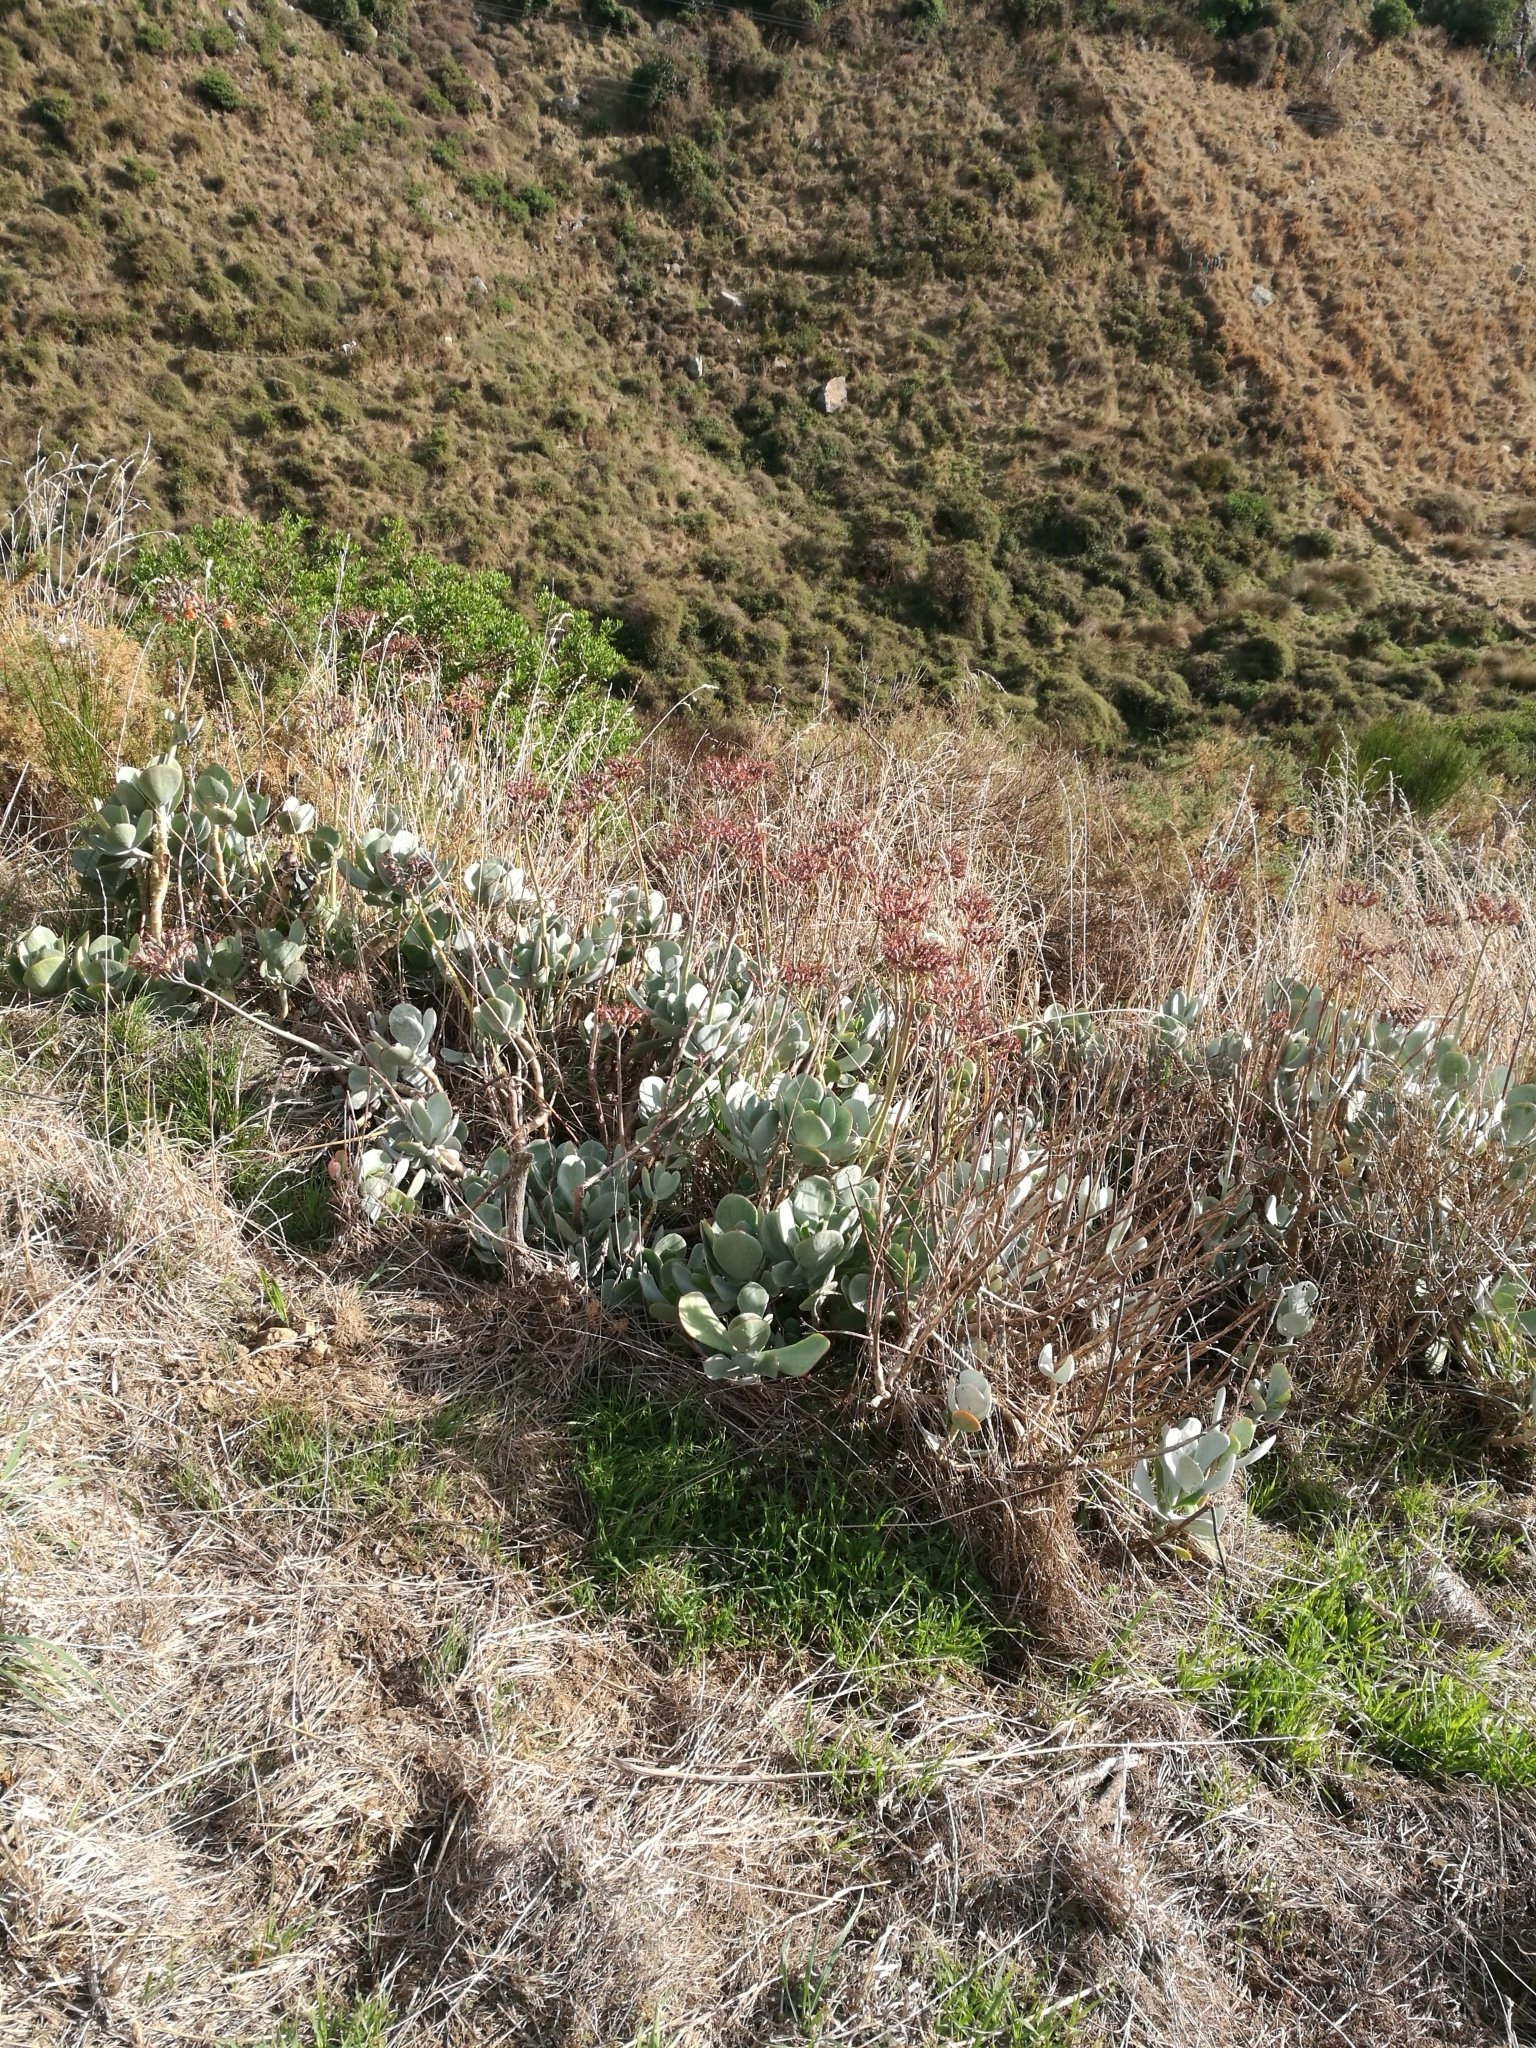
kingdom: Plantae
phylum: Tracheophyta
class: Magnoliopsida
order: Saxifragales
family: Crassulaceae
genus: Cotyledon
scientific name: Cotyledon orbiculata
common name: Pig's ear
